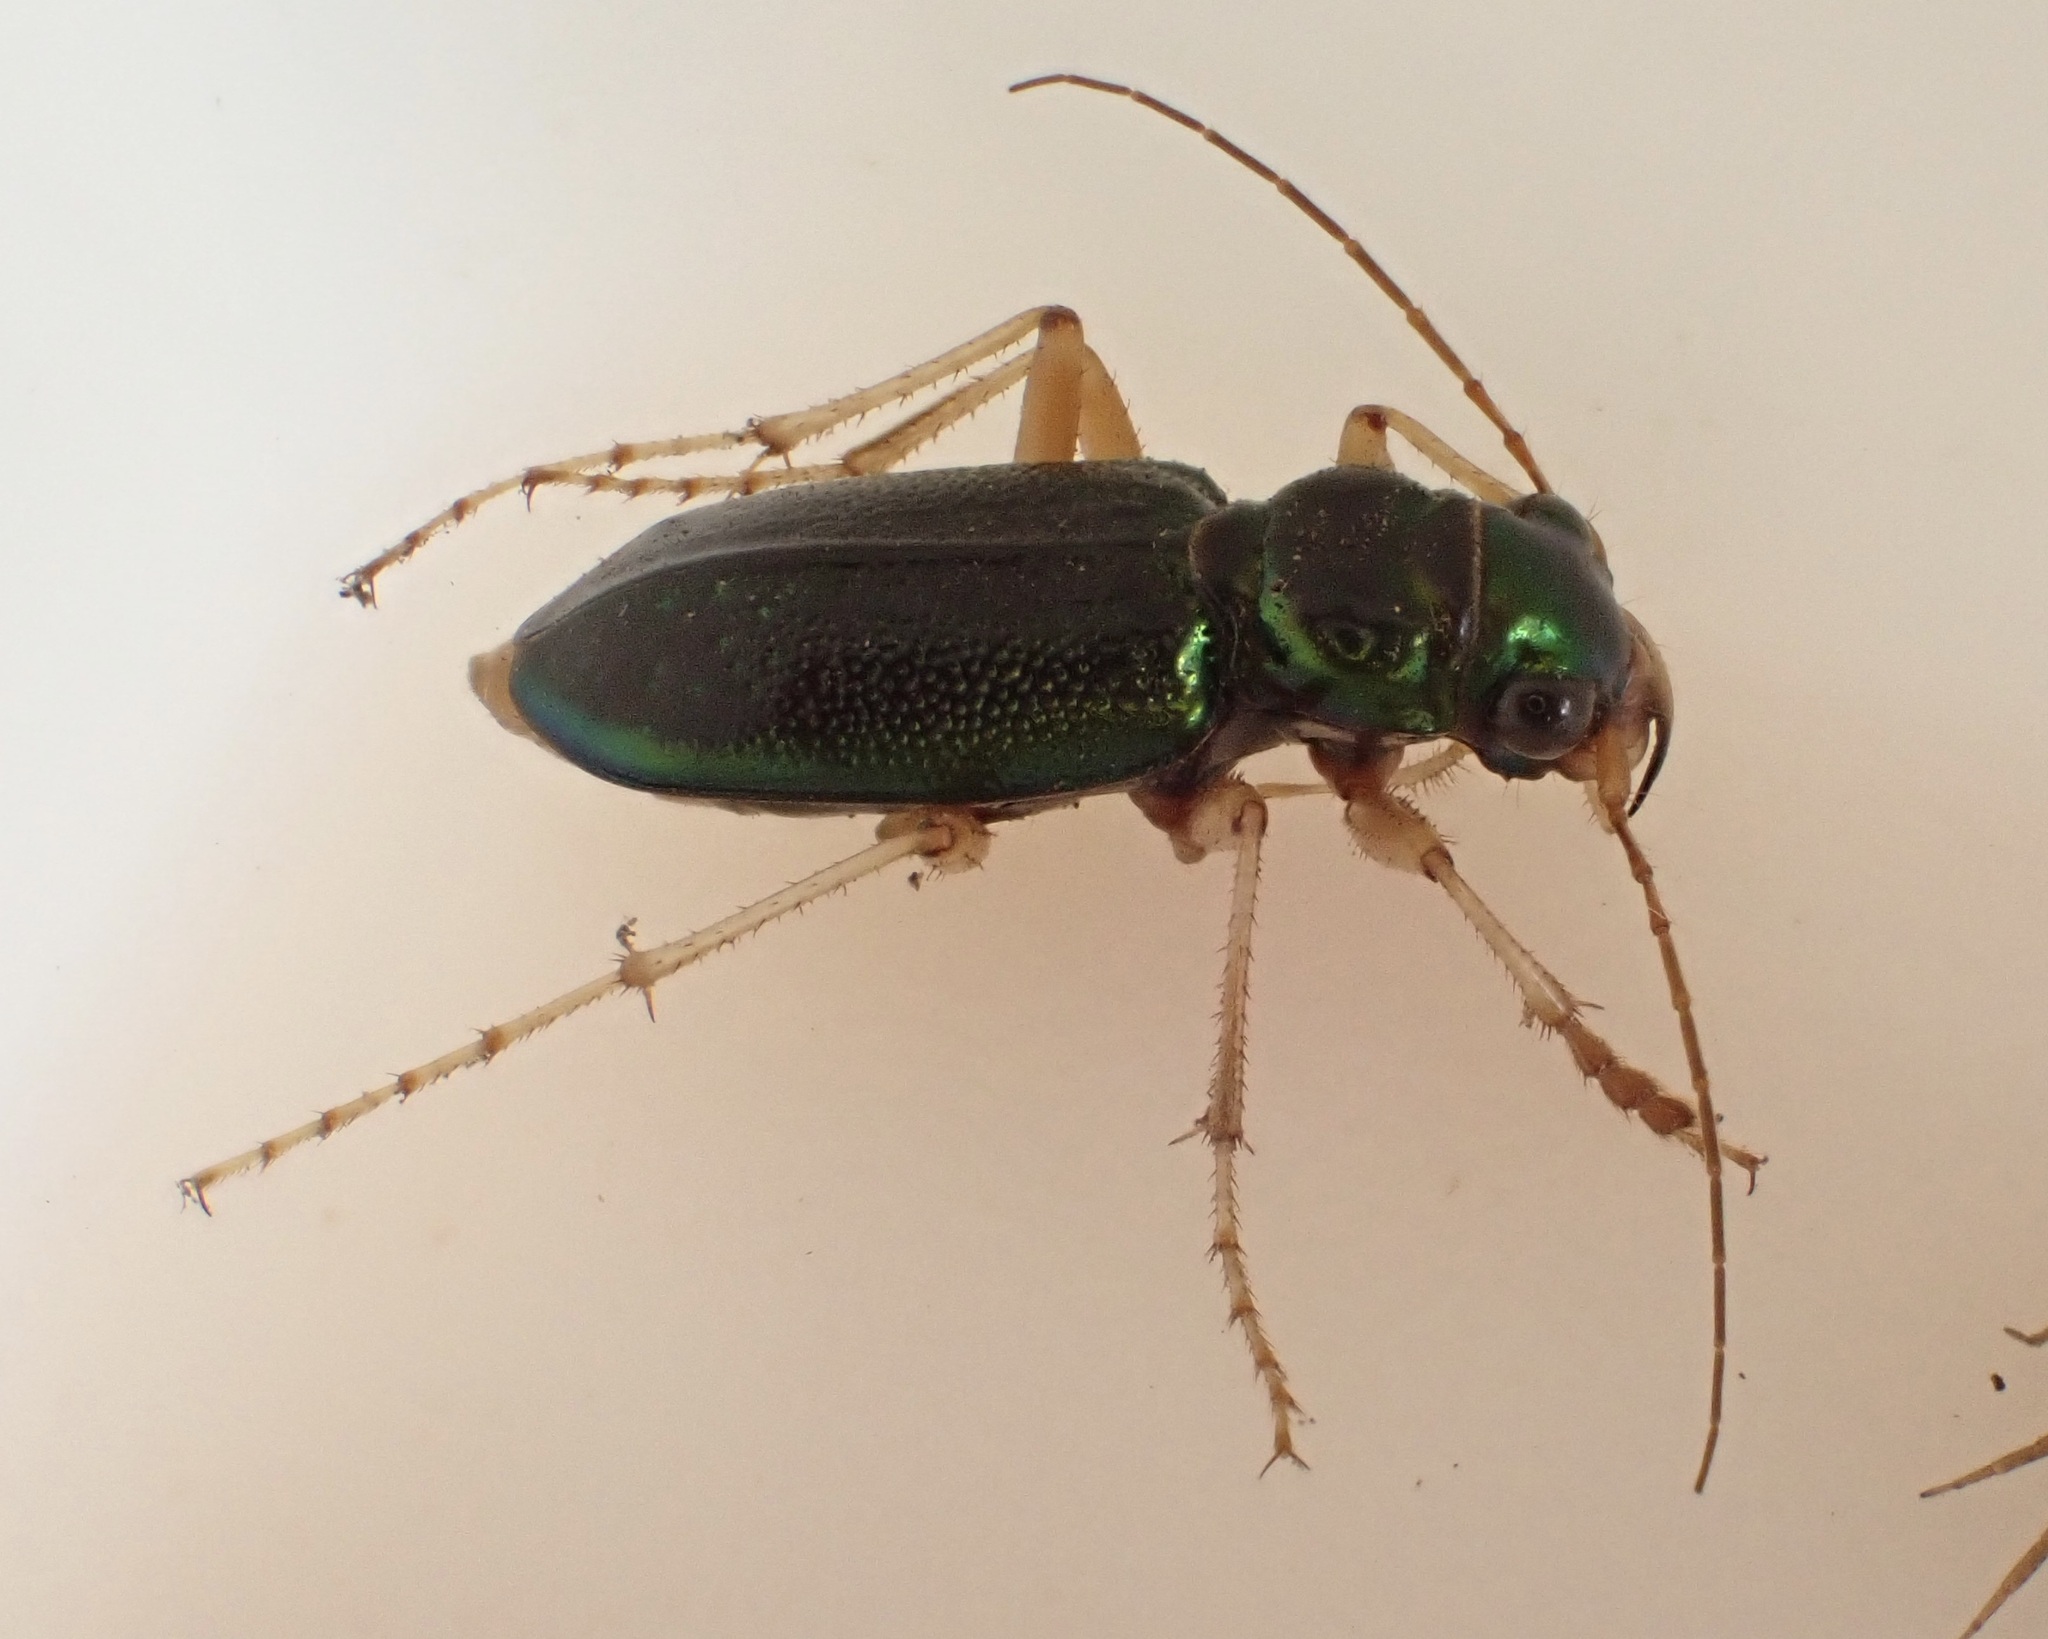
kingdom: Animalia
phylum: Arthropoda
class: Insecta
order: Coleoptera
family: Carabidae
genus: Tetracha
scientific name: Tetracha virginica
